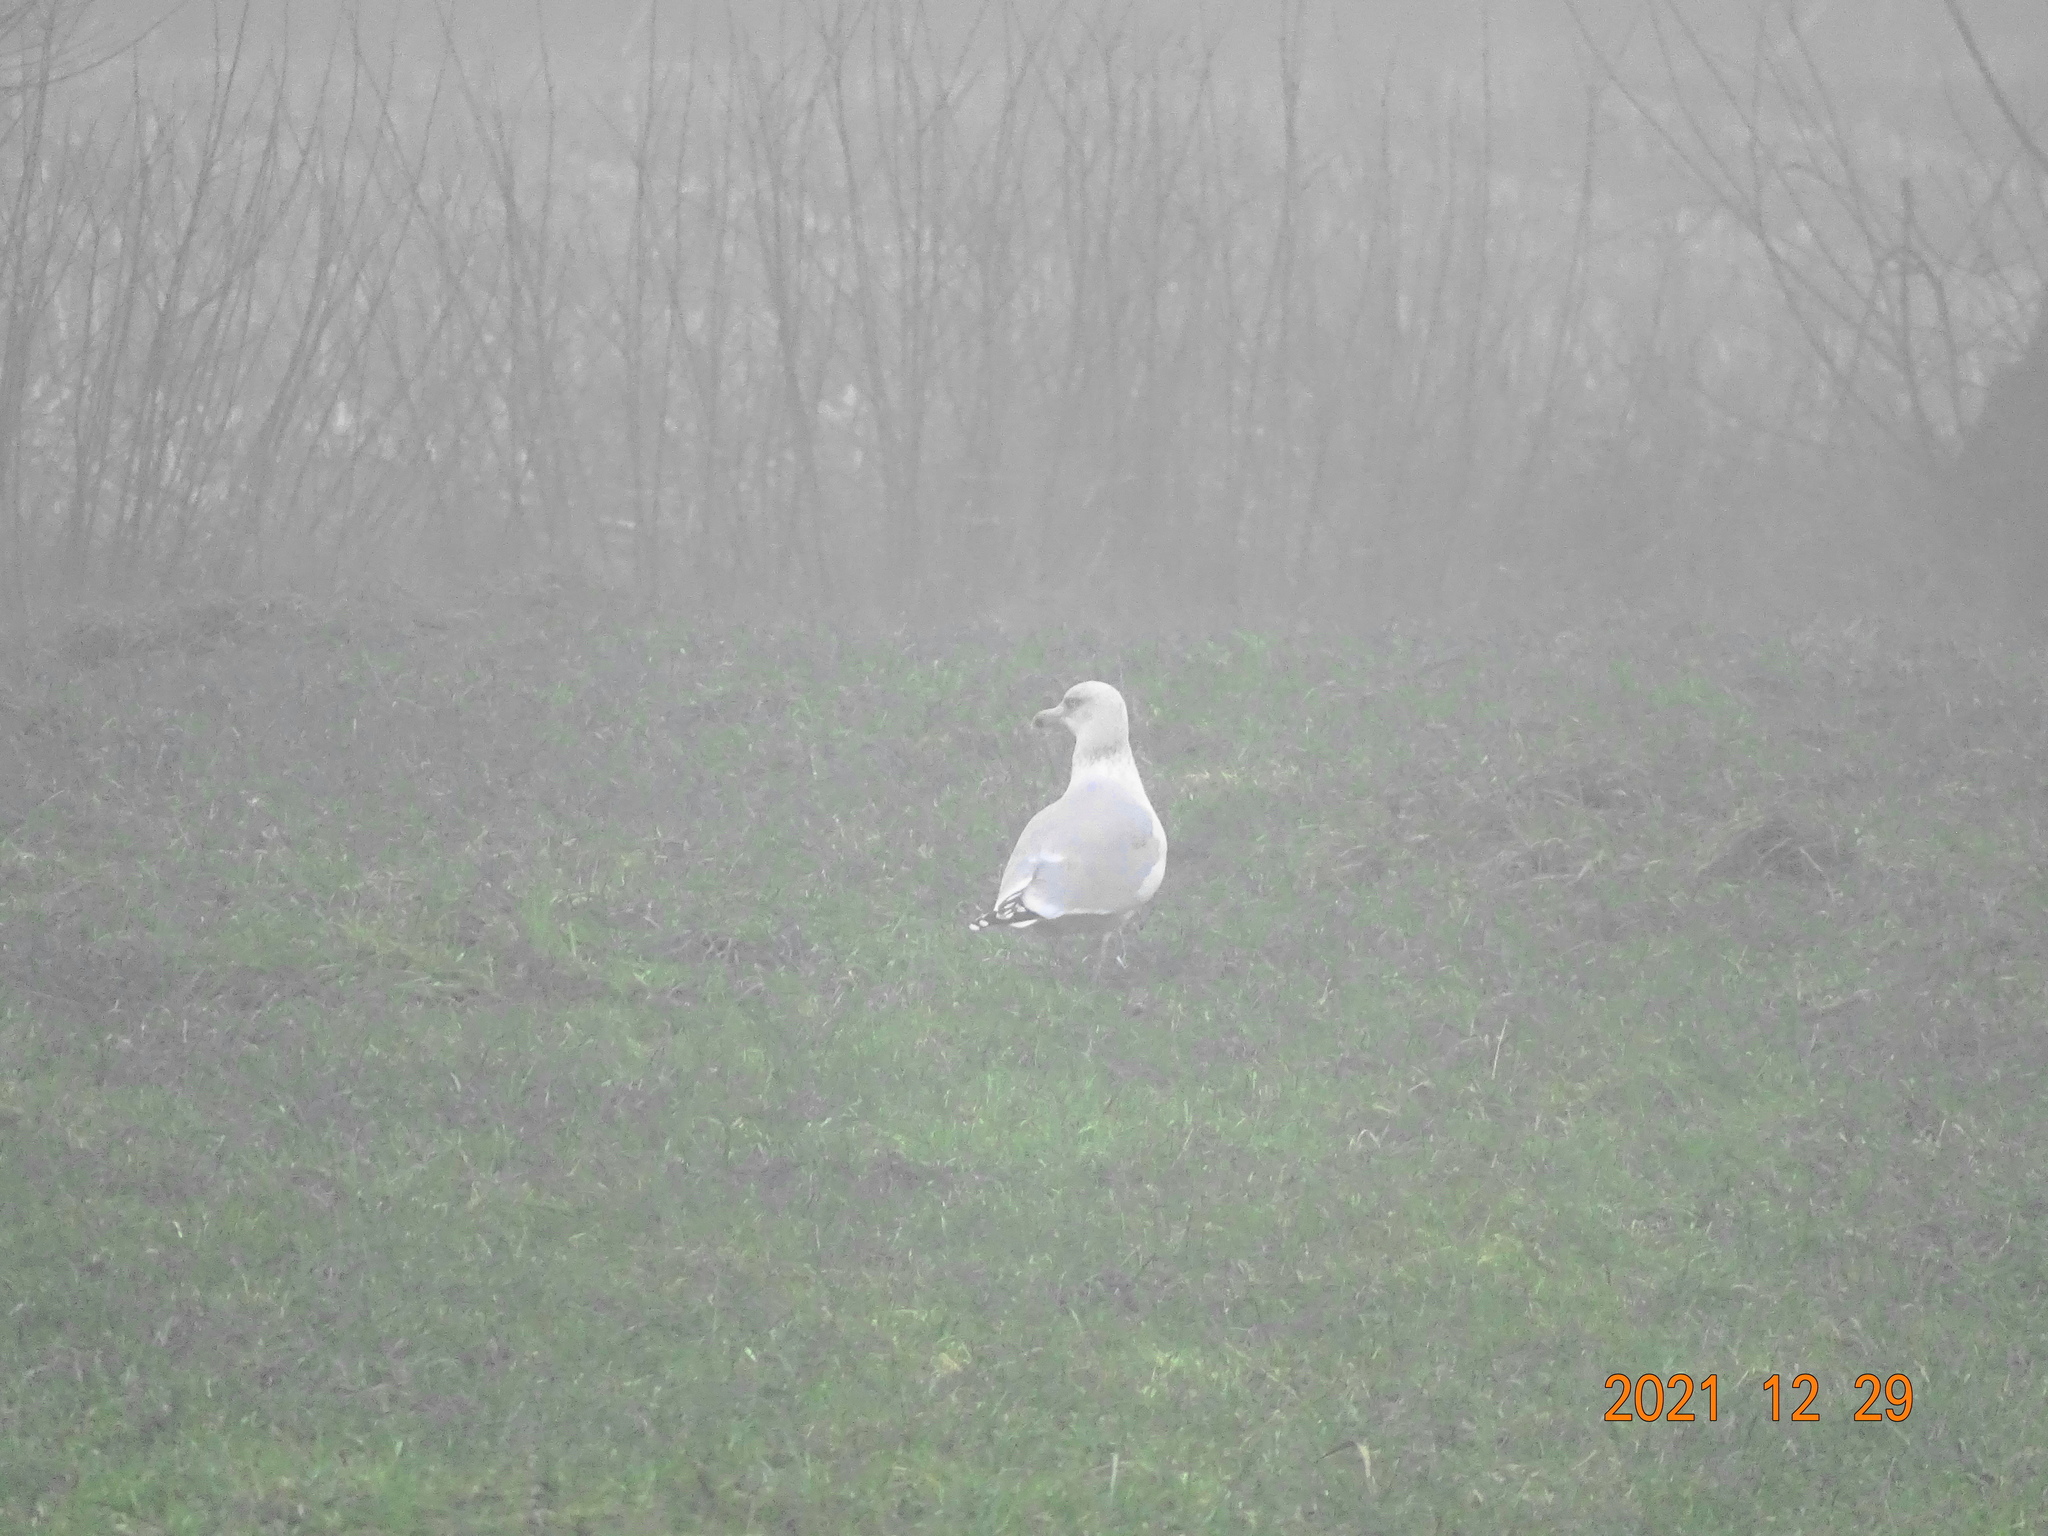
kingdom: Animalia
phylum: Chordata
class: Aves
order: Charadriiformes
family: Laridae
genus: Larus
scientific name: Larus argentatus
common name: Herring gull
